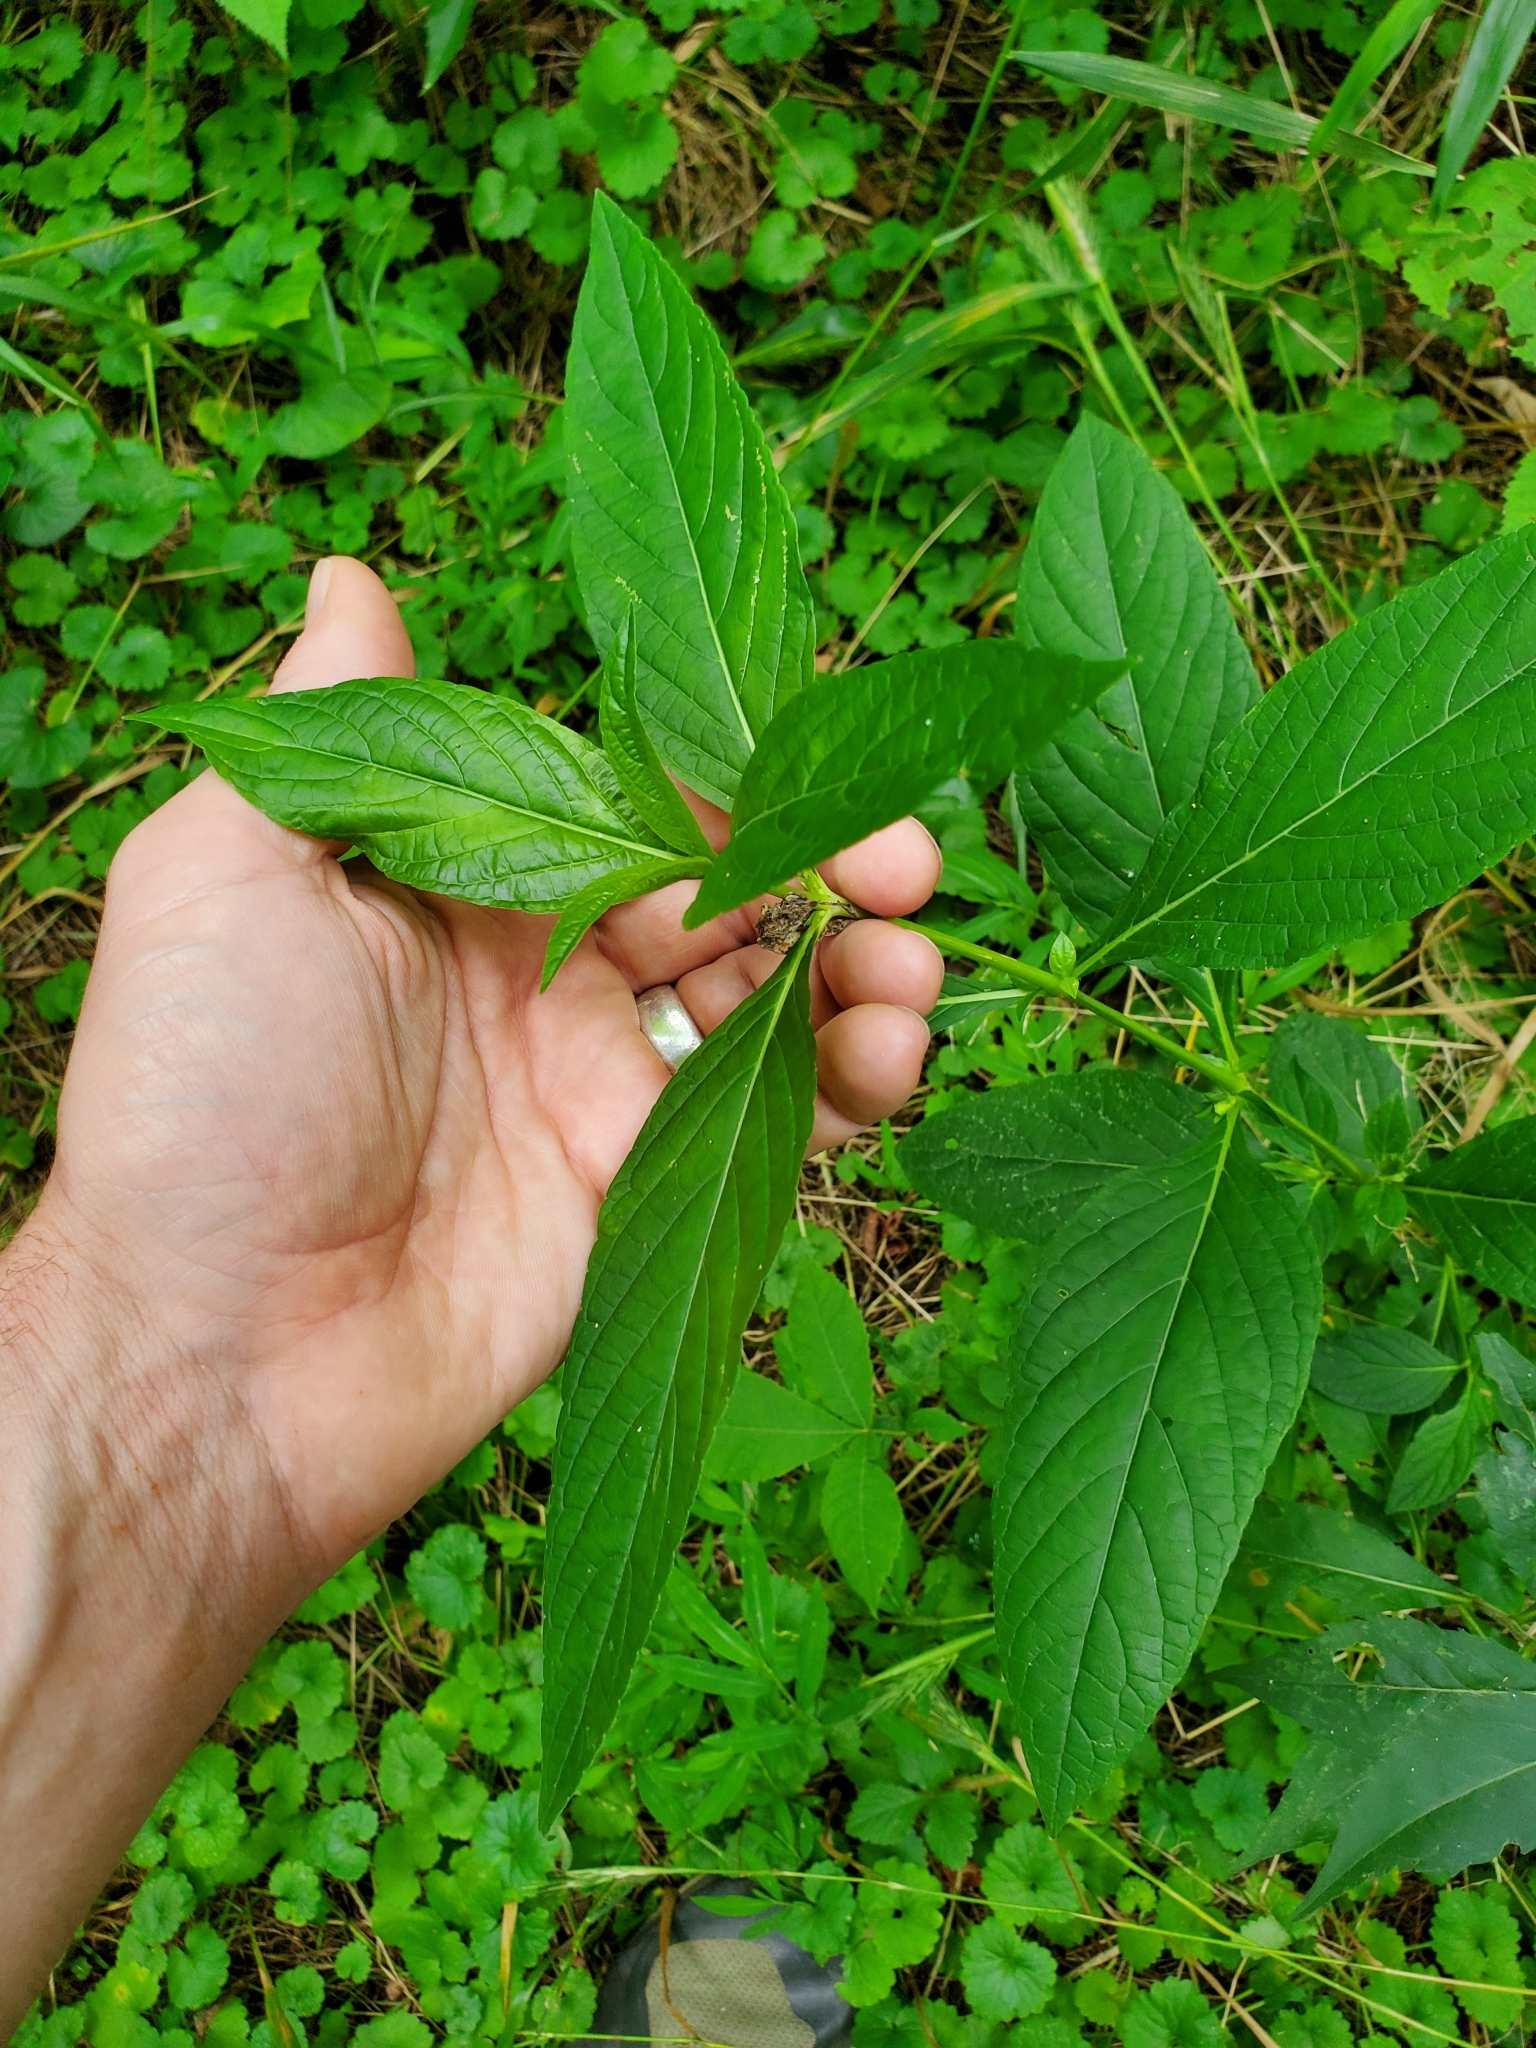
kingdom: Plantae
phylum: Tracheophyta
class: Magnoliopsida
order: Lamiales
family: Acanthaceae
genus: Ruellia
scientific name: Ruellia strepens
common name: Limestone wild petunia
